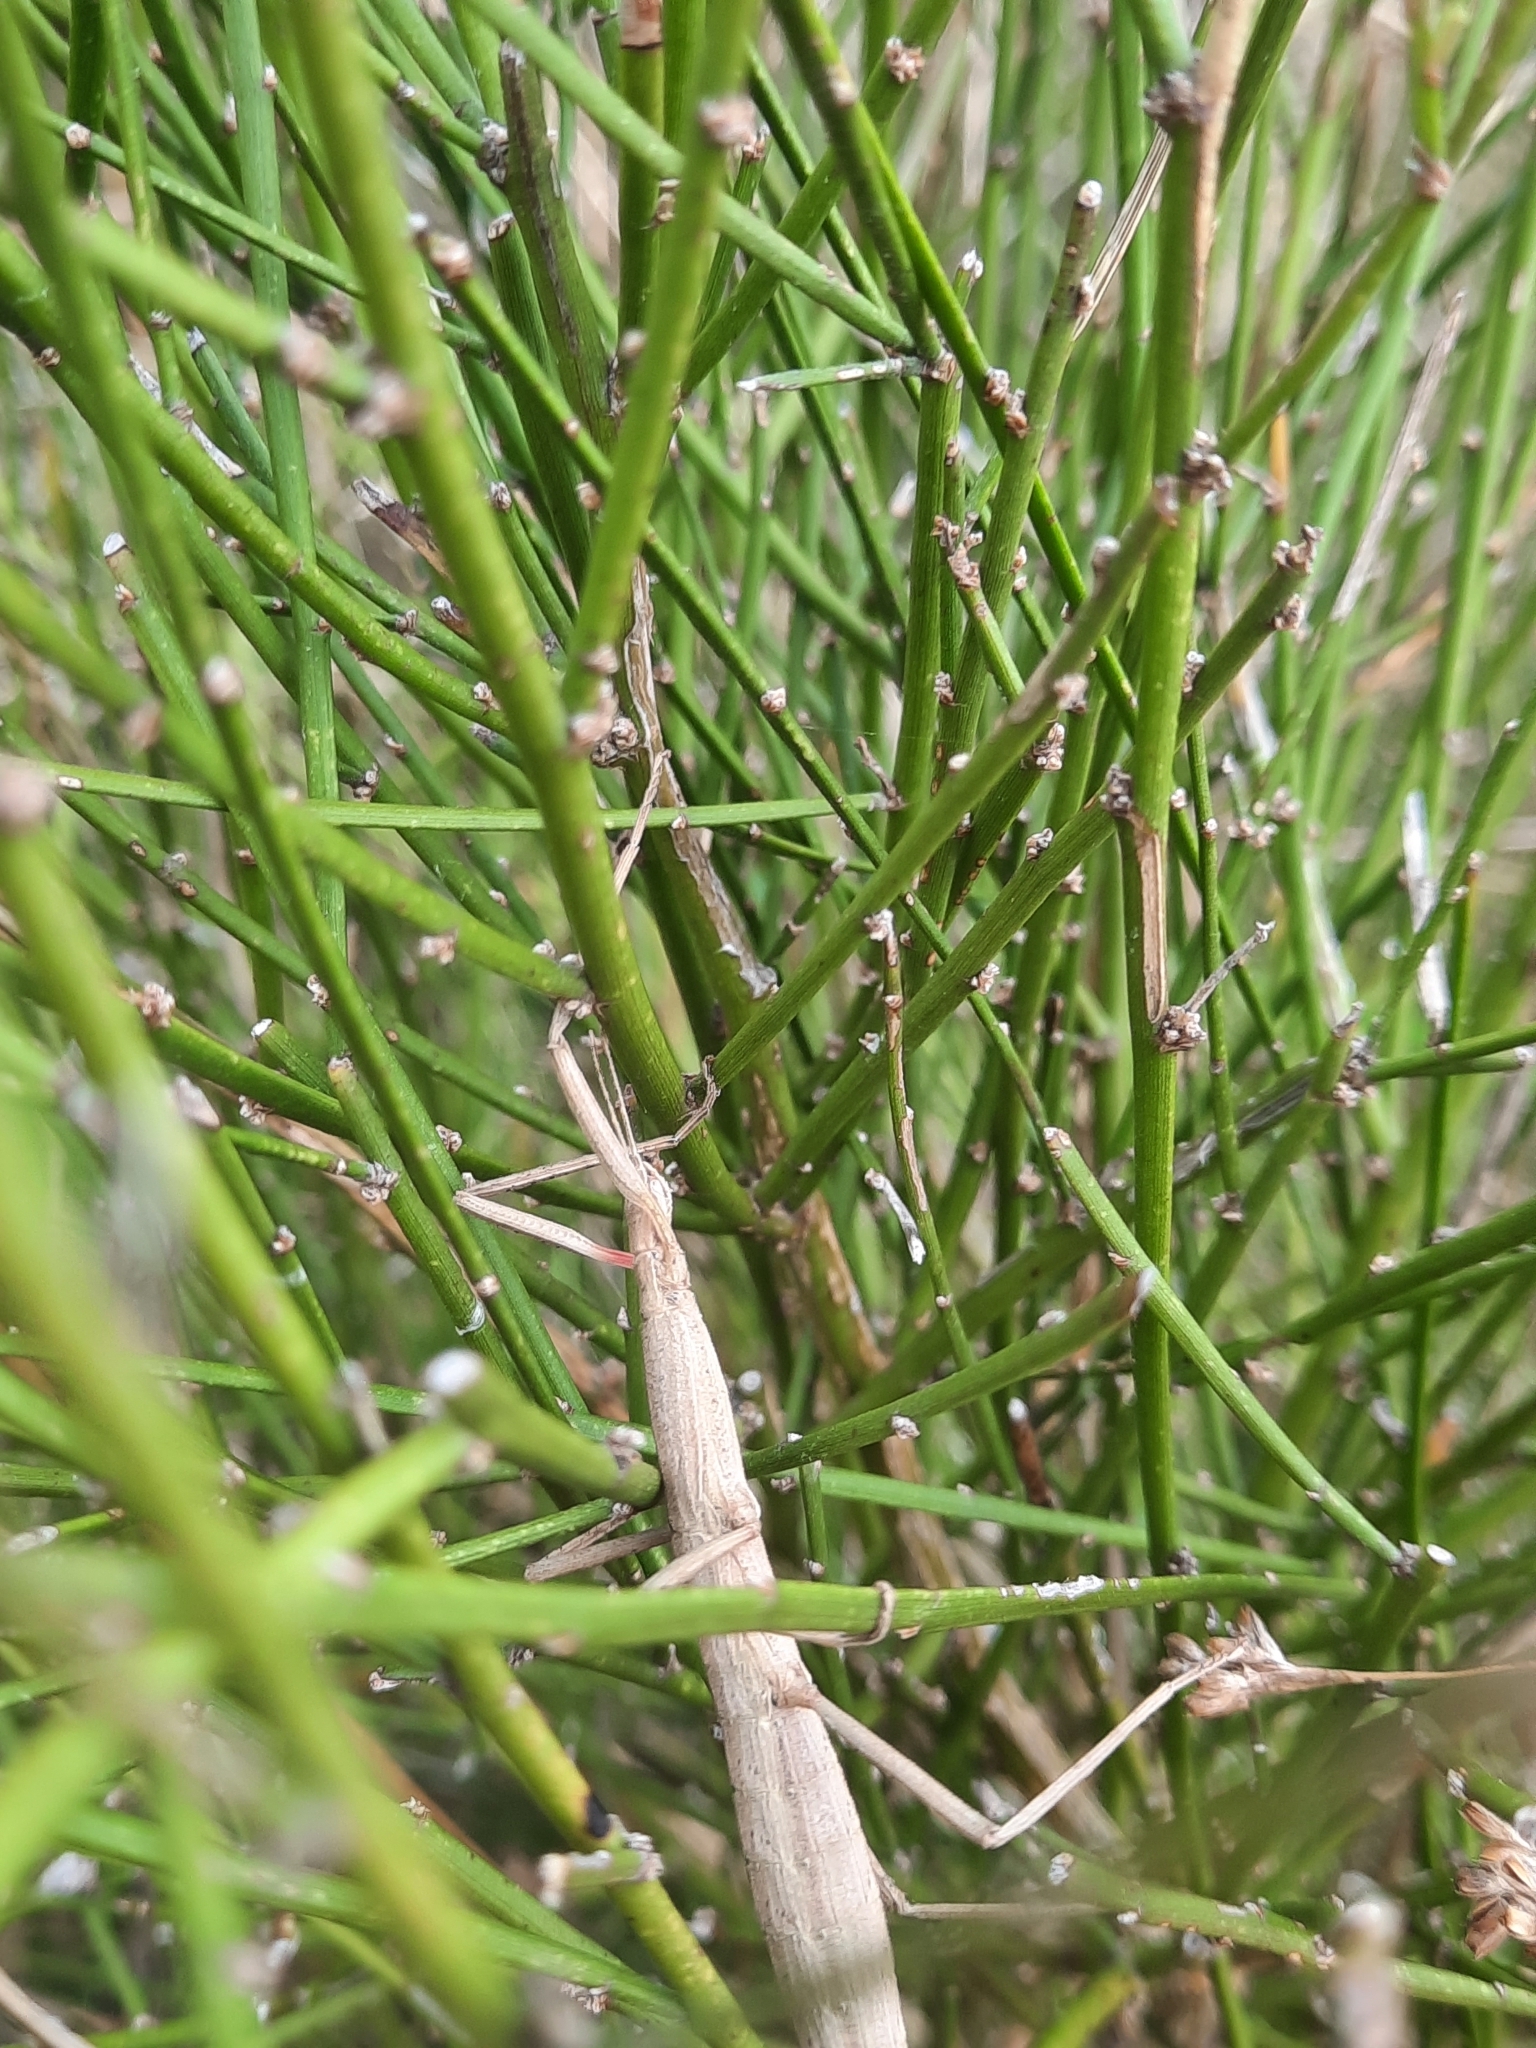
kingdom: Animalia
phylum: Arthropoda
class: Insecta
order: Phasmida
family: Phasmatidae
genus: Clitarchus
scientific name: Clitarchus hookeri
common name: Smooth stick insect
